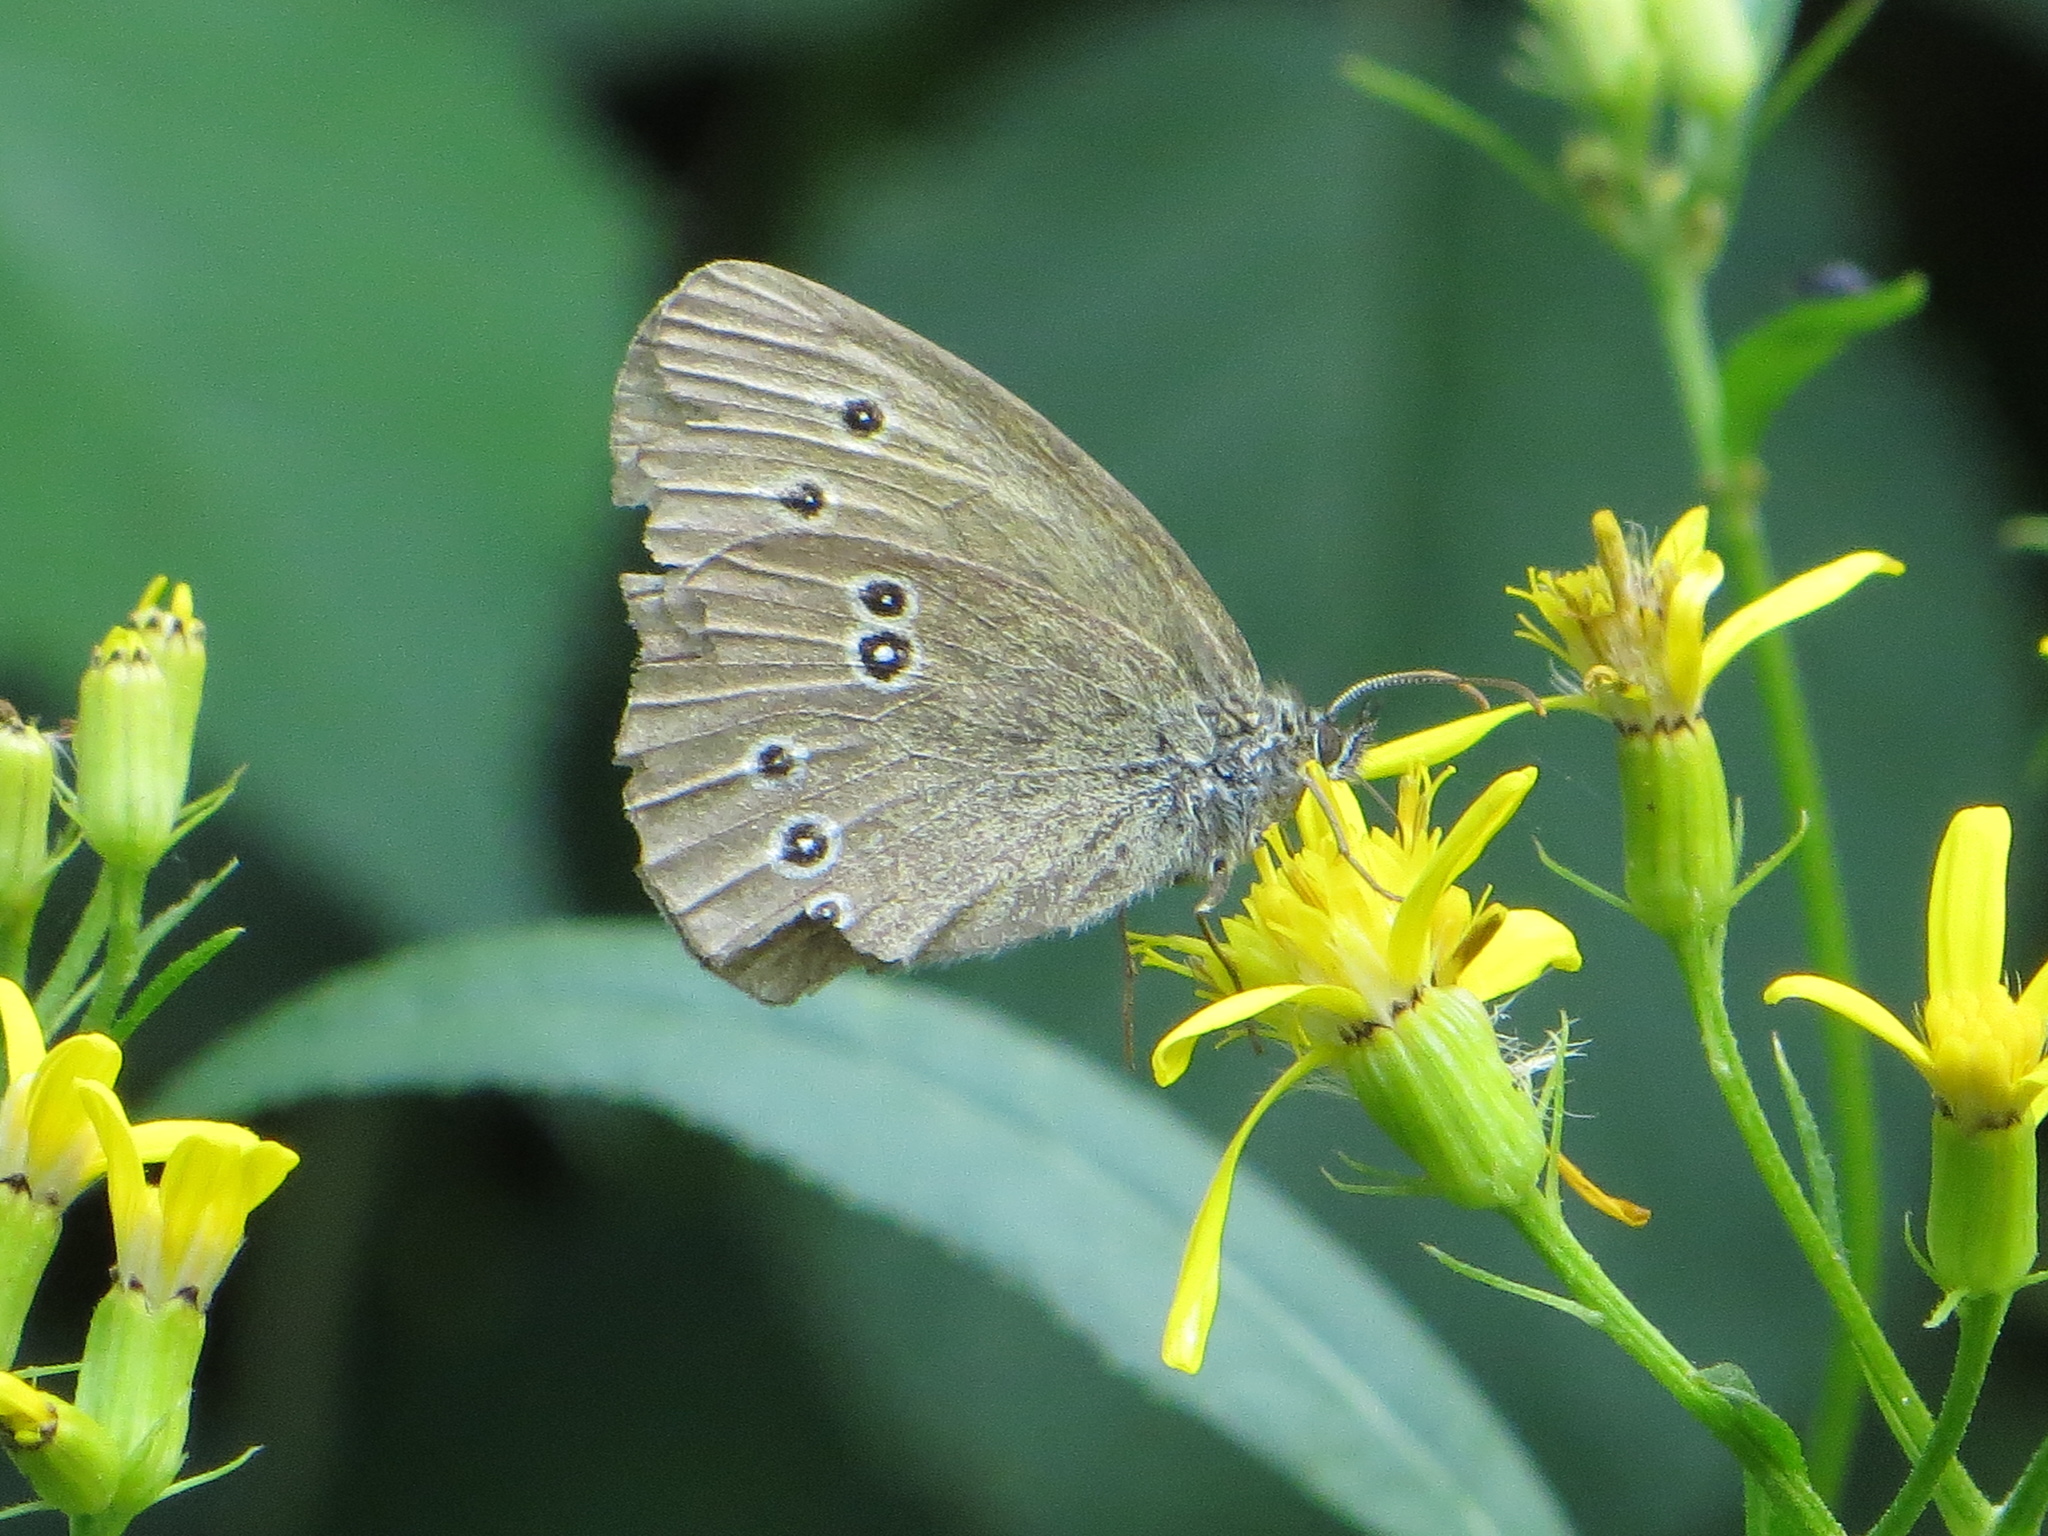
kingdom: Animalia
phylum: Arthropoda
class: Insecta
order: Lepidoptera
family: Nymphalidae
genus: Aphantopus
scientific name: Aphantopus hyperantus
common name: Ringlet
